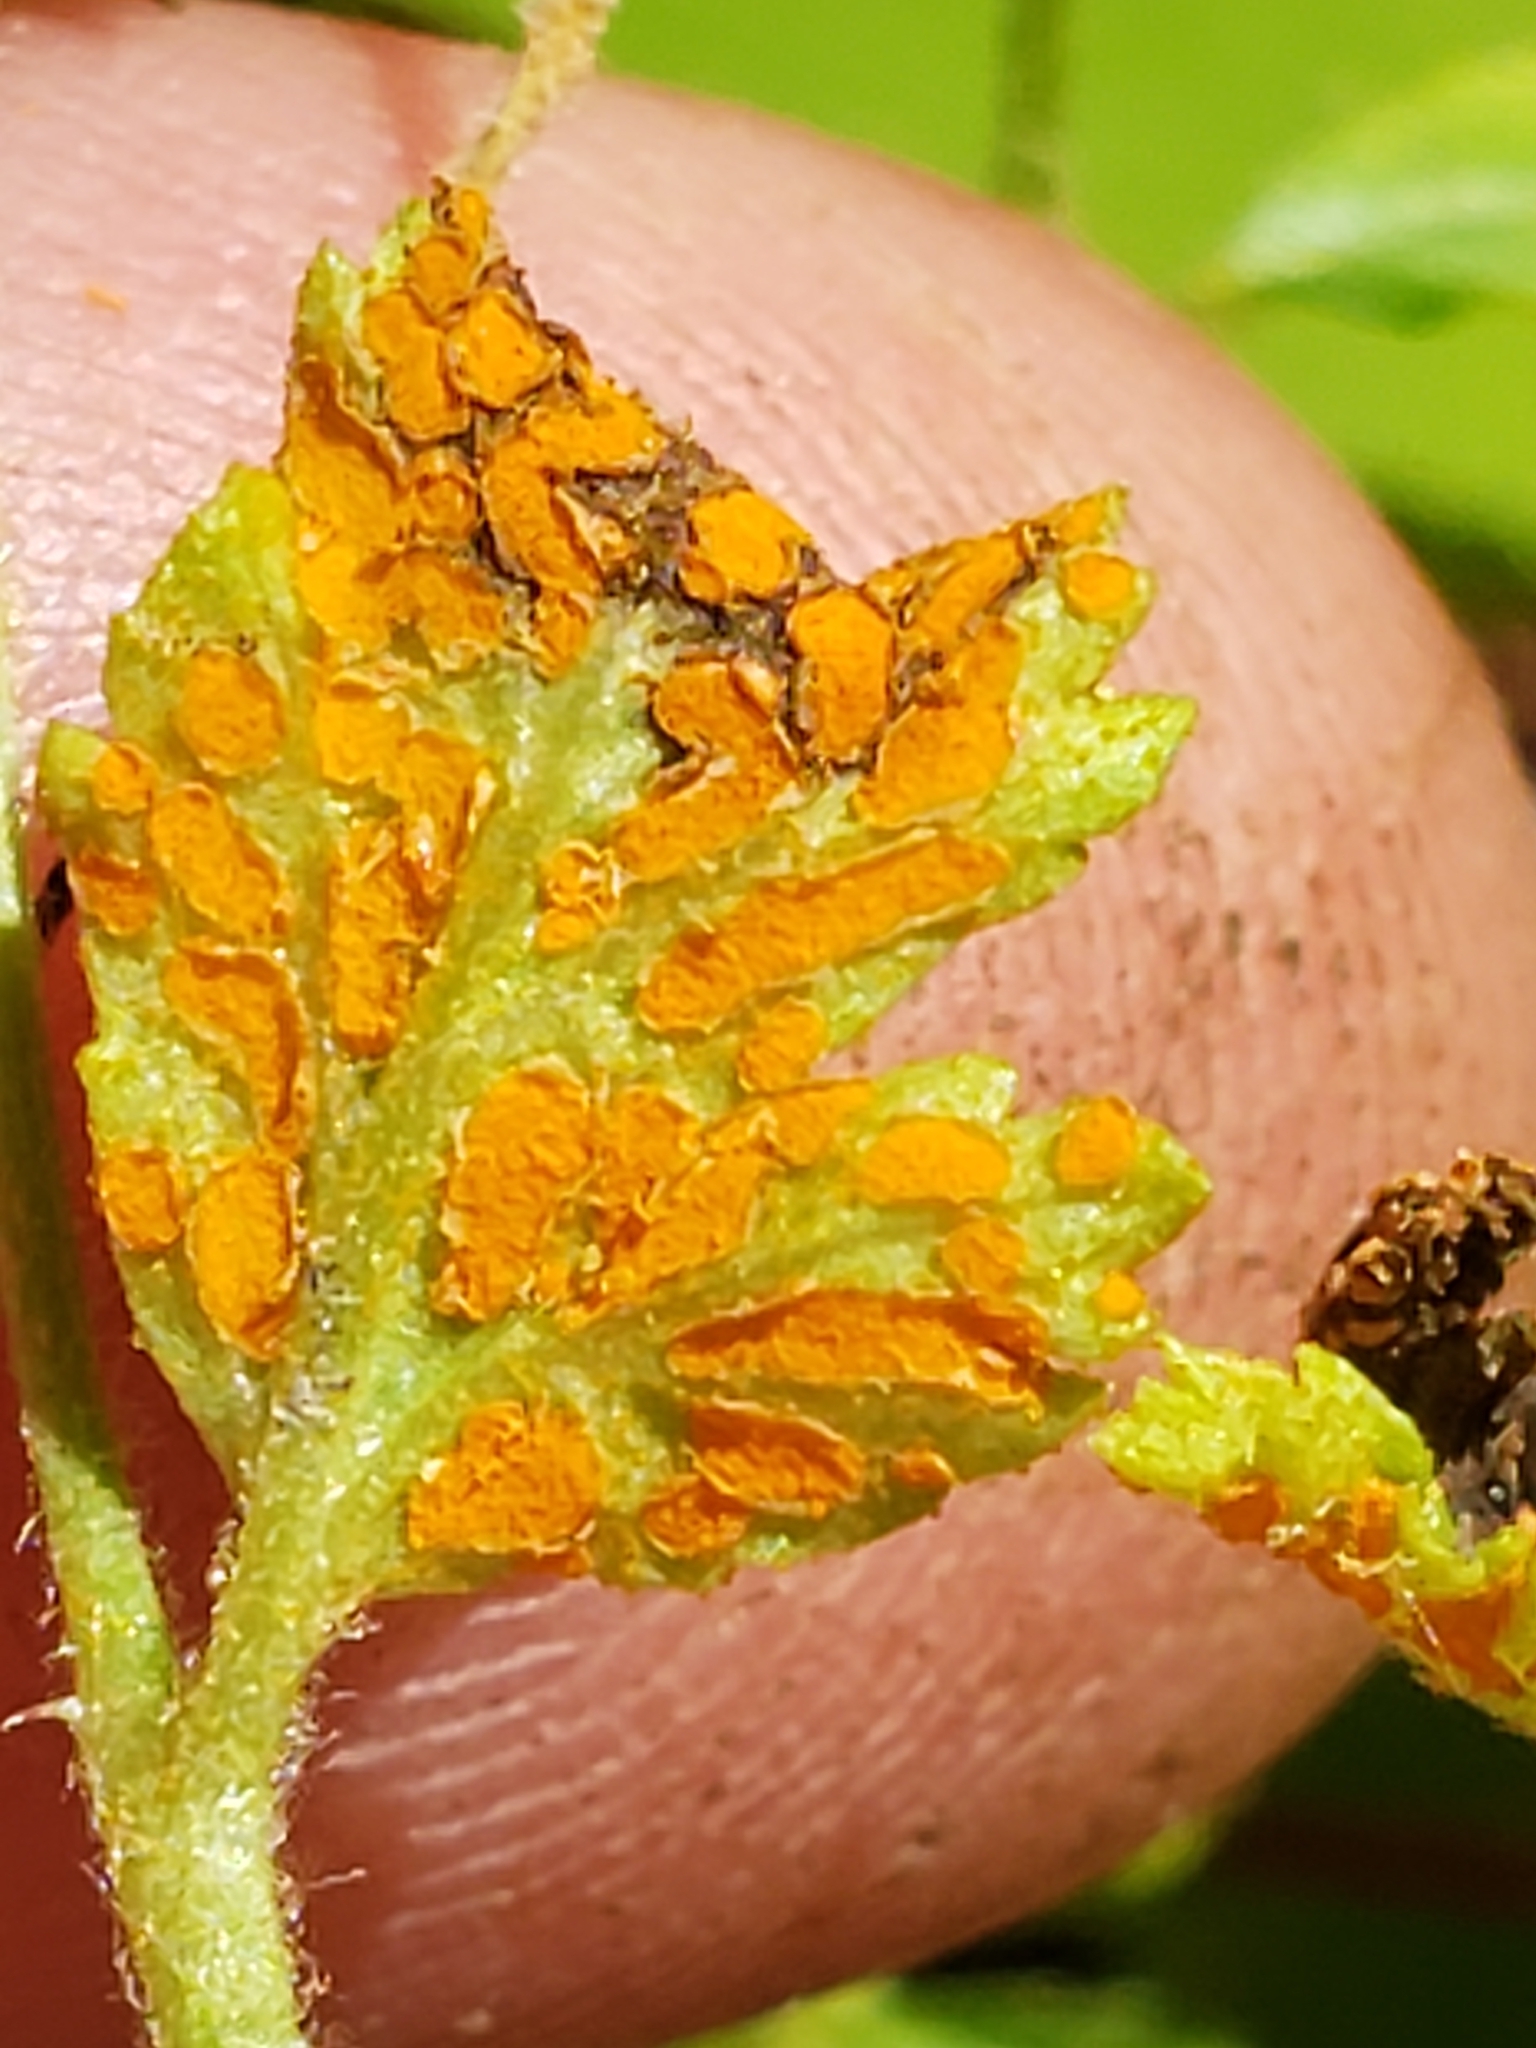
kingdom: Fungi
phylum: Basidiomycota
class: Pucciniomycetes
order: Pucciniales
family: Phragmidiaceae
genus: Arthuriomyces
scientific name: Arthuriomyces peckianus
